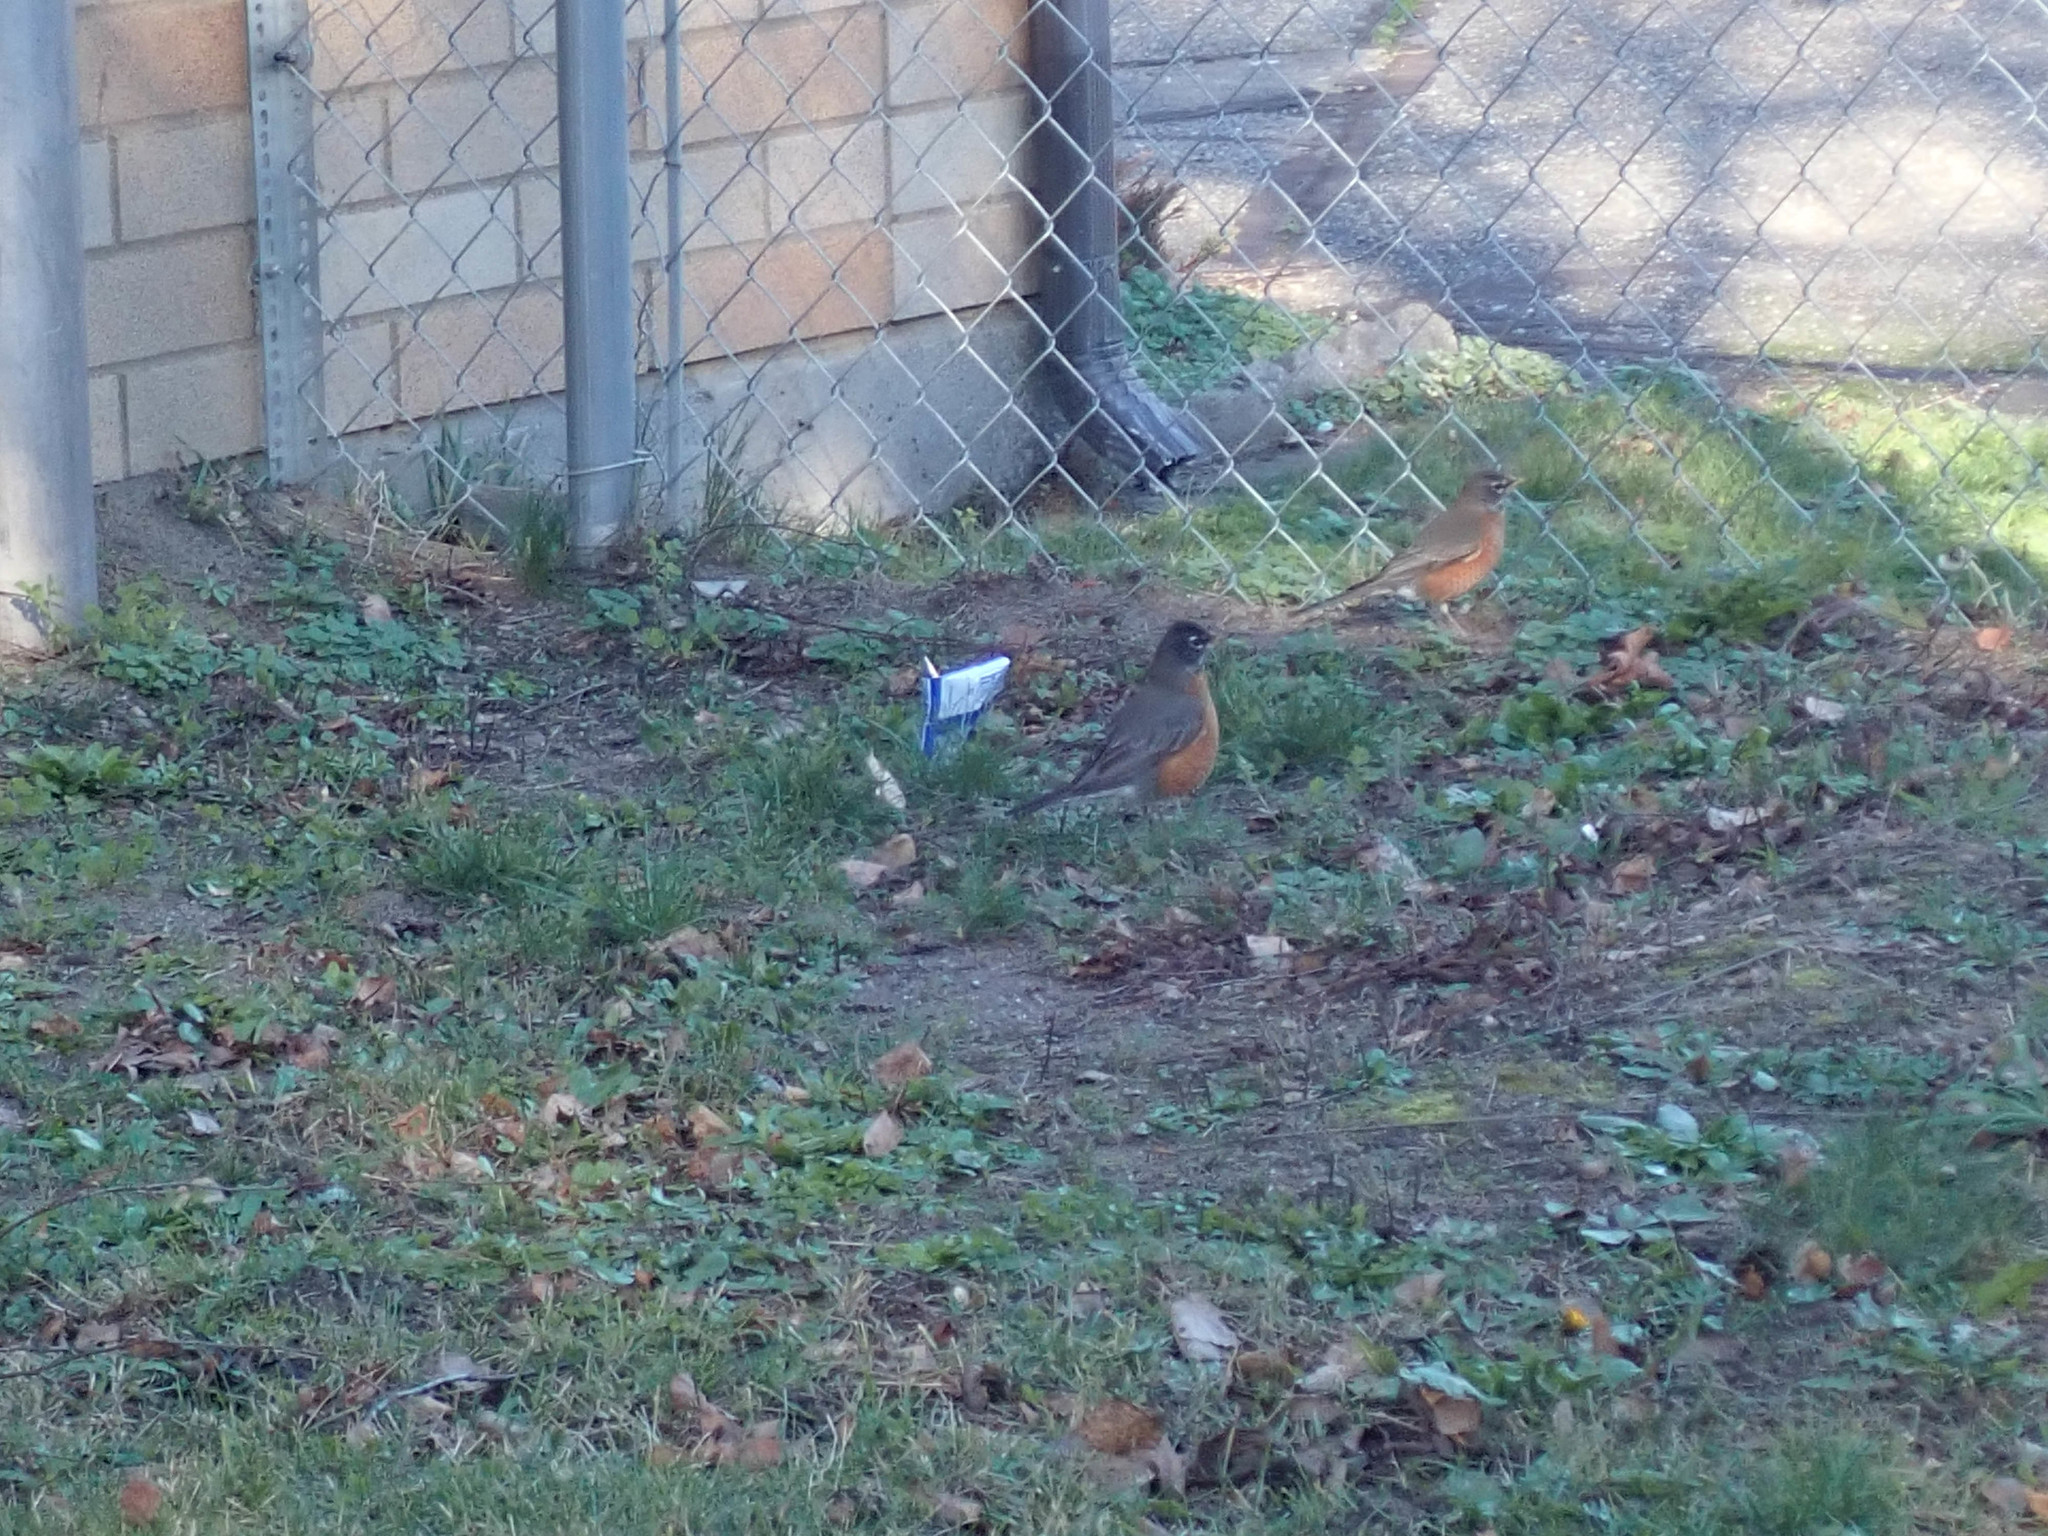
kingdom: Animalia
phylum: Chordata
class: Aves
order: Passeriformes
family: Turdidae
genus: Turdus
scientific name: Turdus migratorius
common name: American robin
